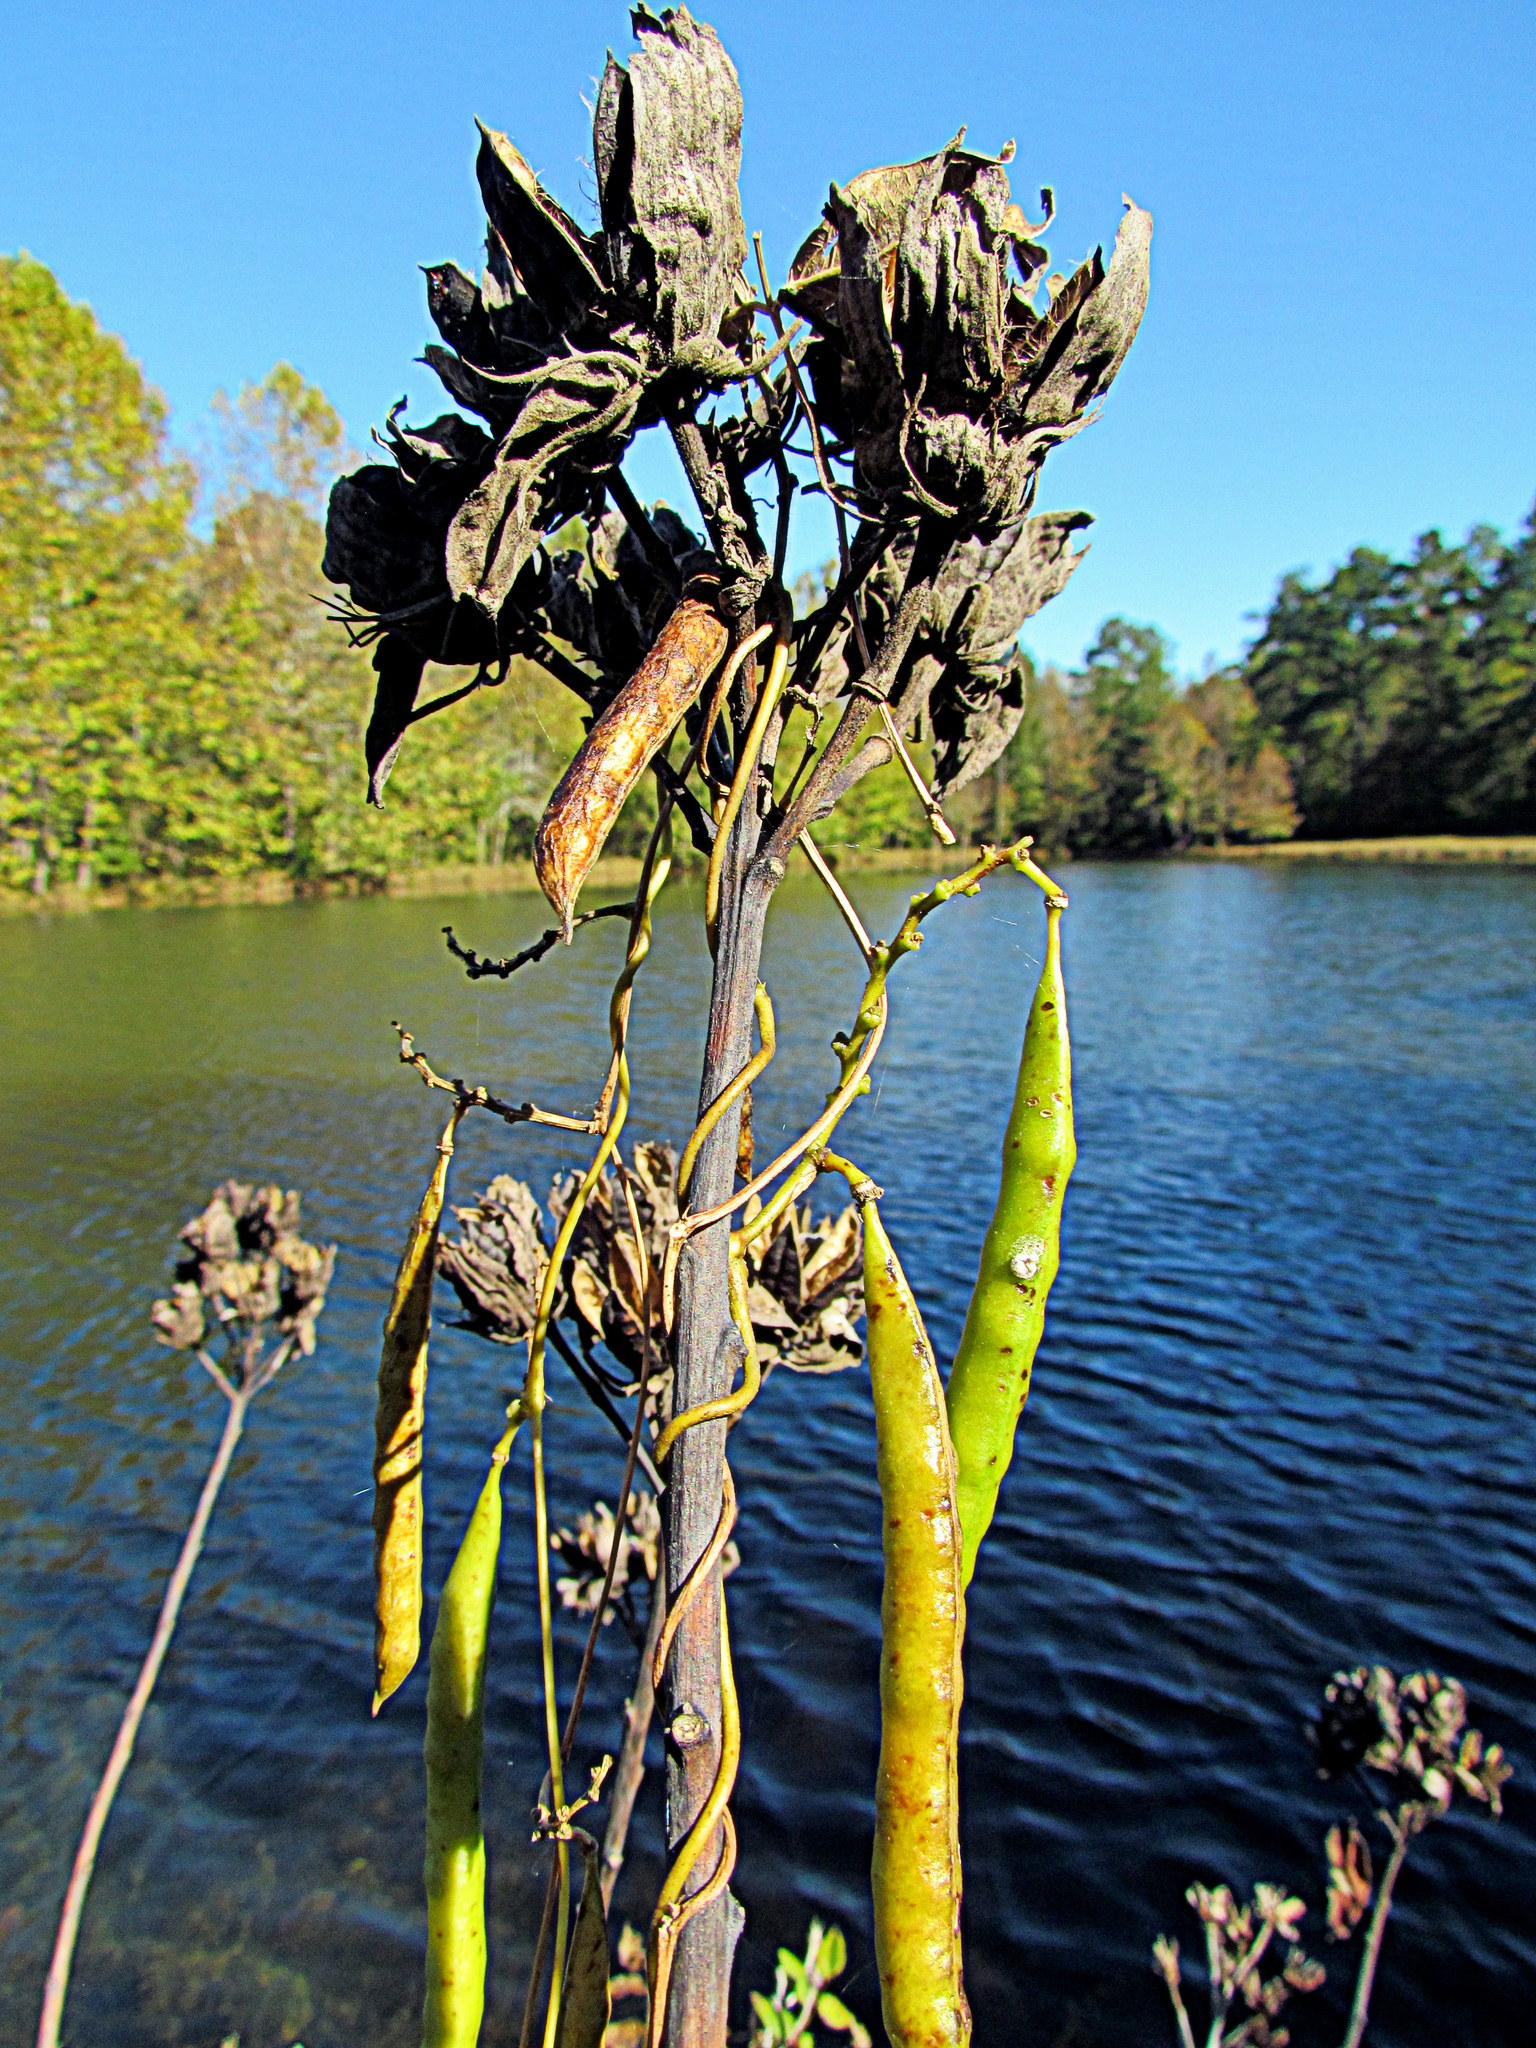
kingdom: Plantae
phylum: Tracheophyta
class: Magnoliopsida
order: Malvales
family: Malvaceae
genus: Hibiscus
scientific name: Hibiscus moscheutos
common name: Common rose-mallow
